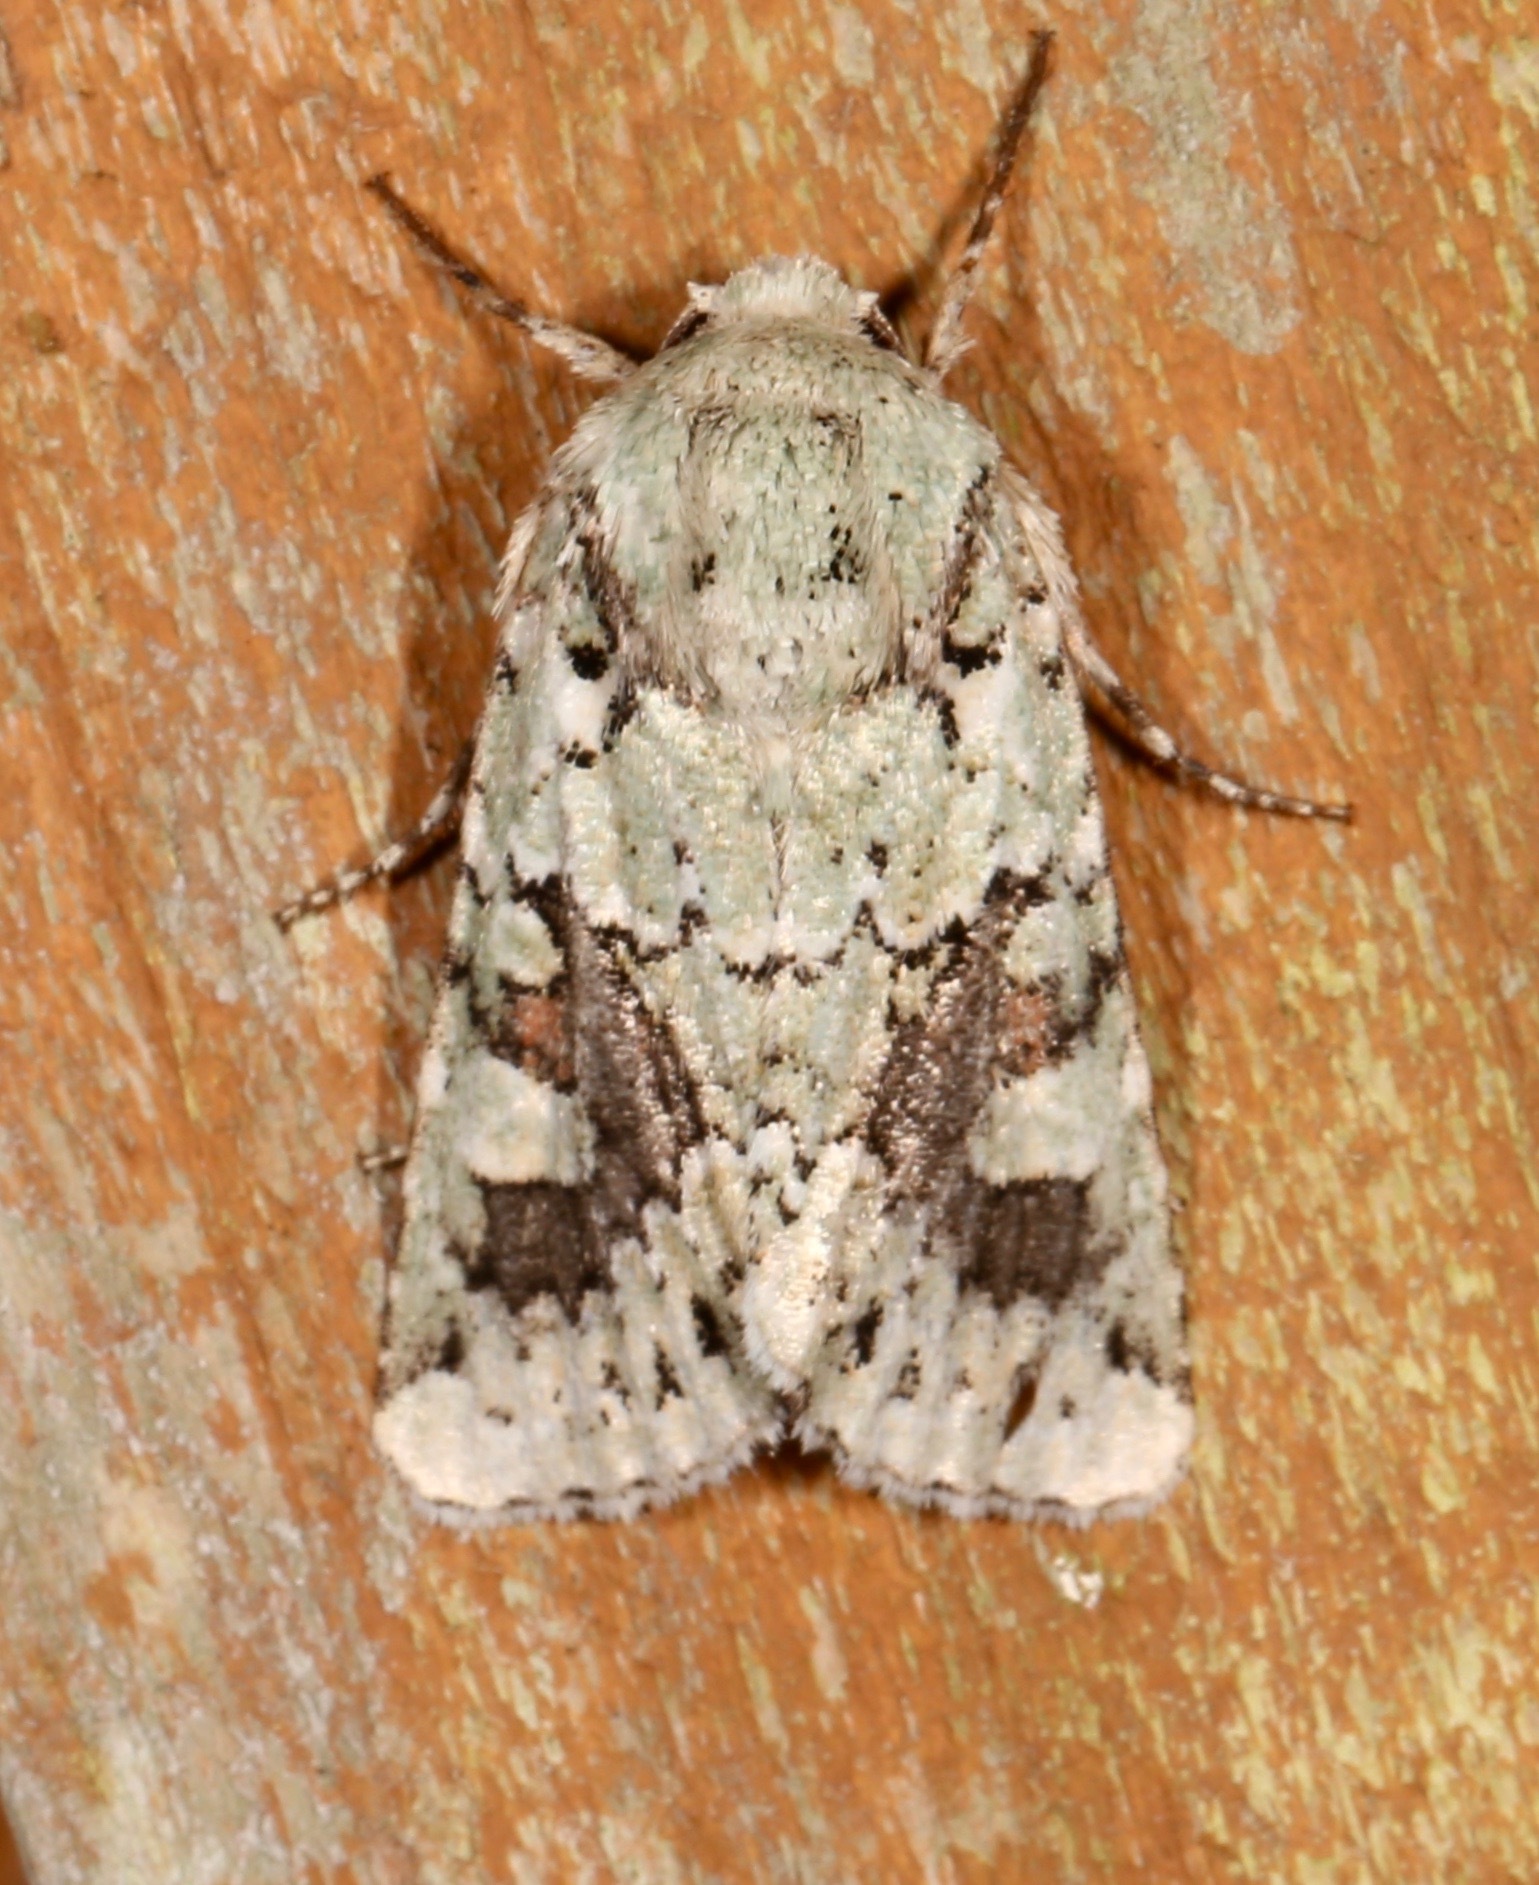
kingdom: Animalia
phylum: Arthropoda
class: Insecta
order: Lepidoptera
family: Noctuidae
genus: Lacinipolia
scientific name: Lacinipolia laudabilis
